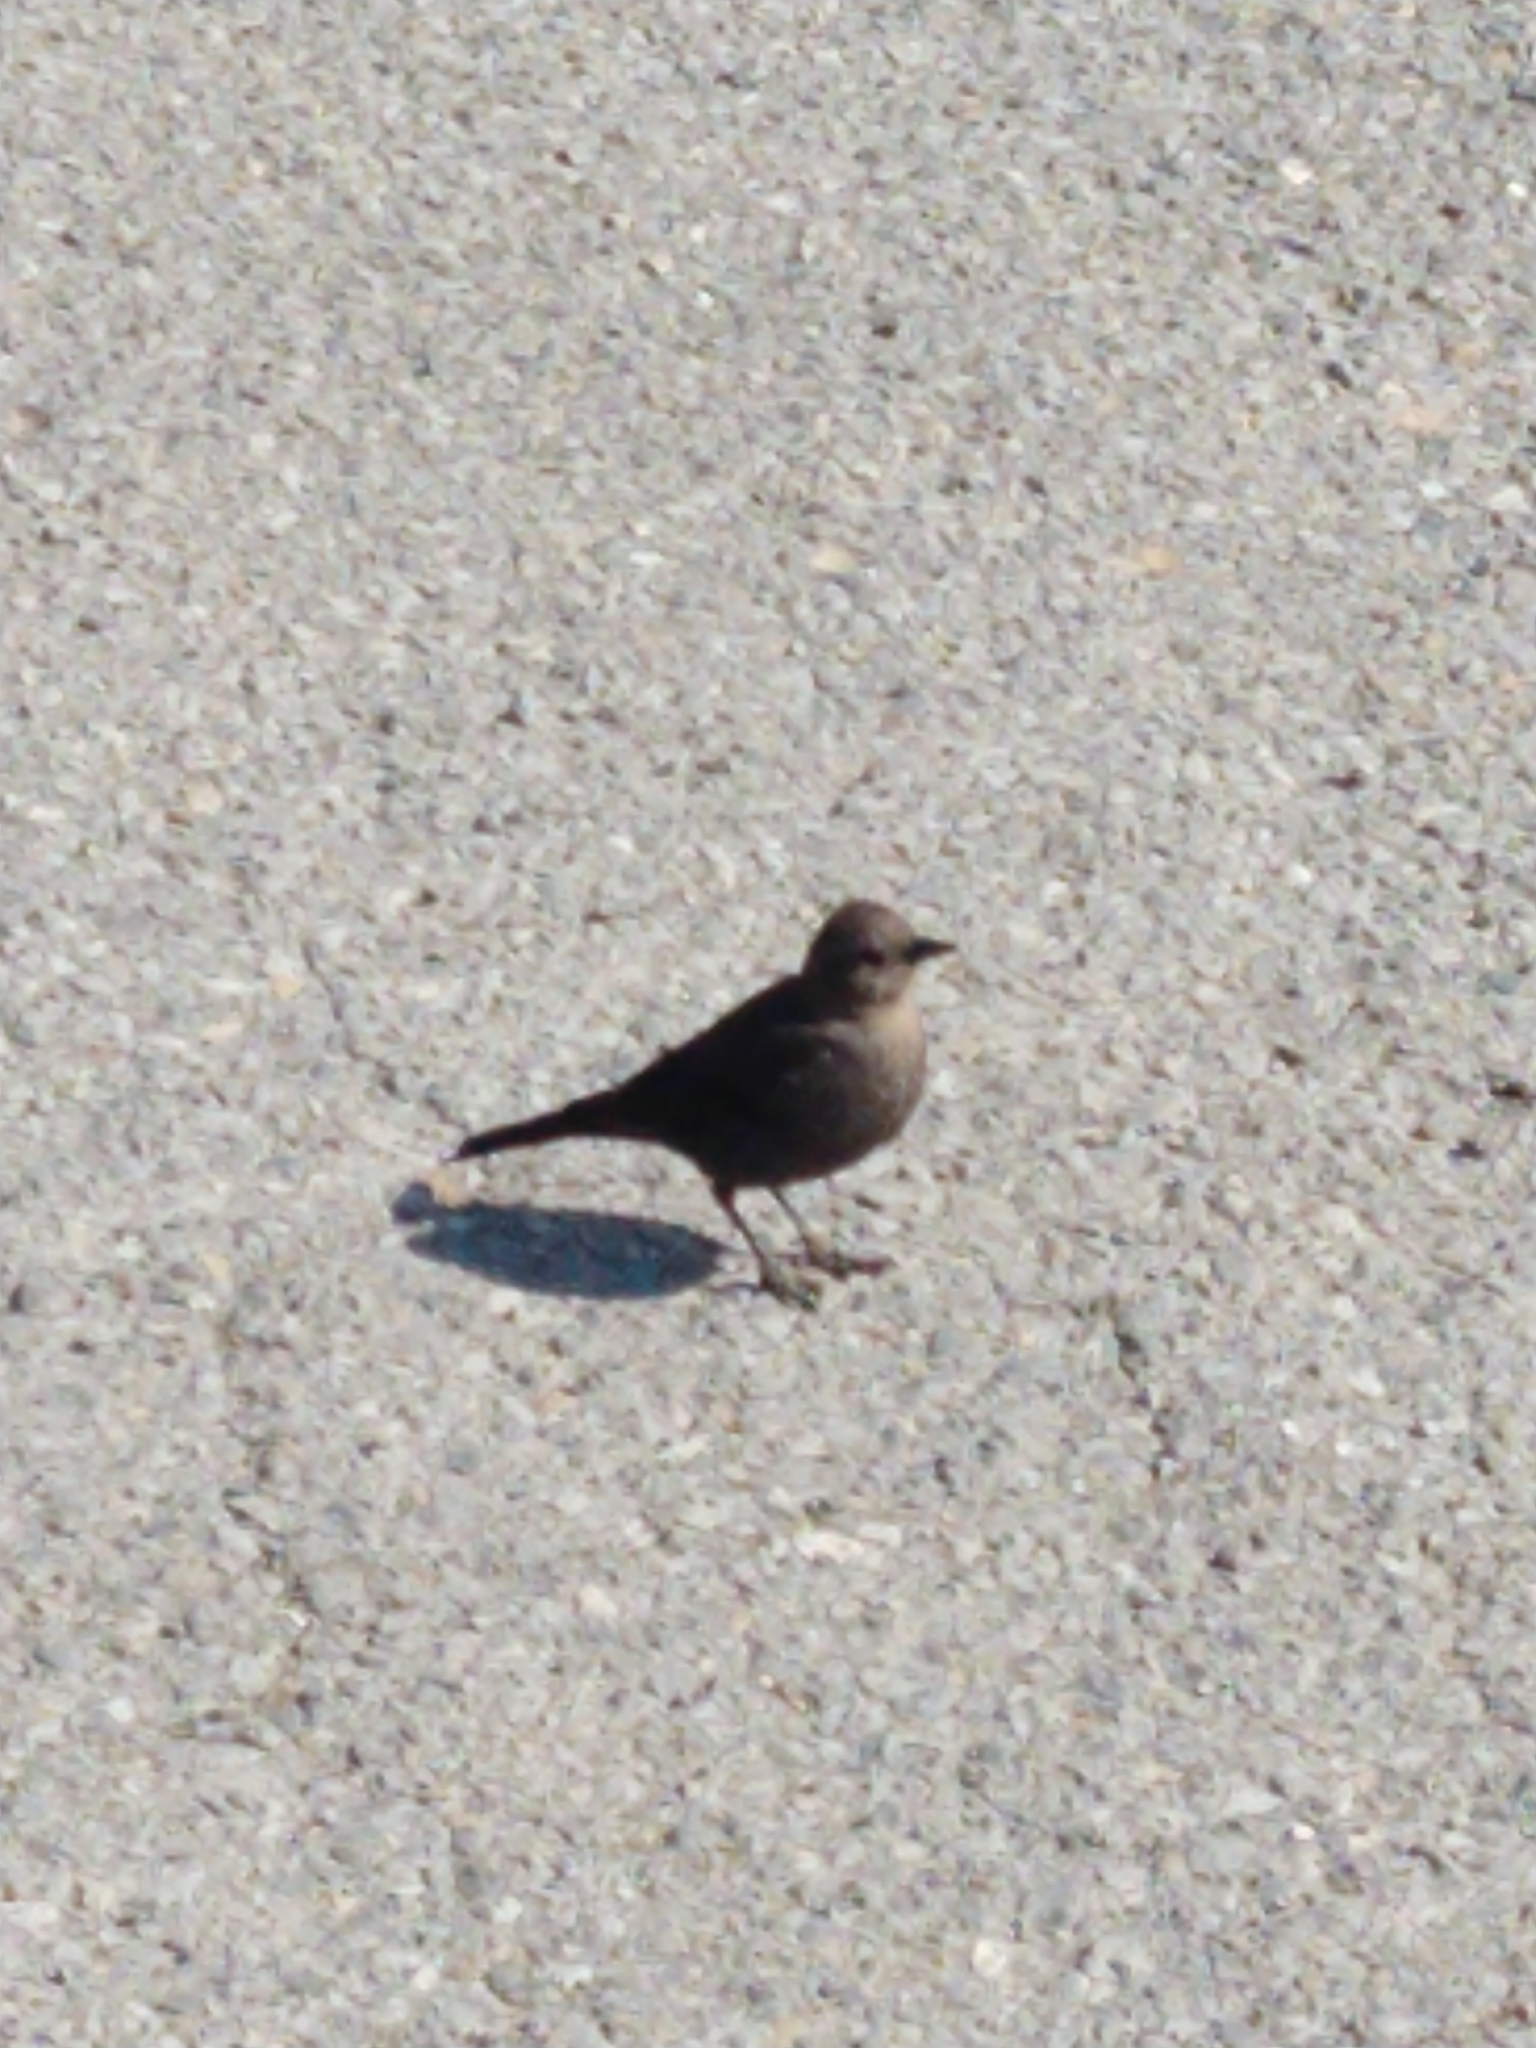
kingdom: Animalia
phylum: Chordata
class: Aves
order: Passeriformes
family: Icteridae
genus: Euphagus
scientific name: Euphagus cyanocephalus
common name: Brewer's blackbird
